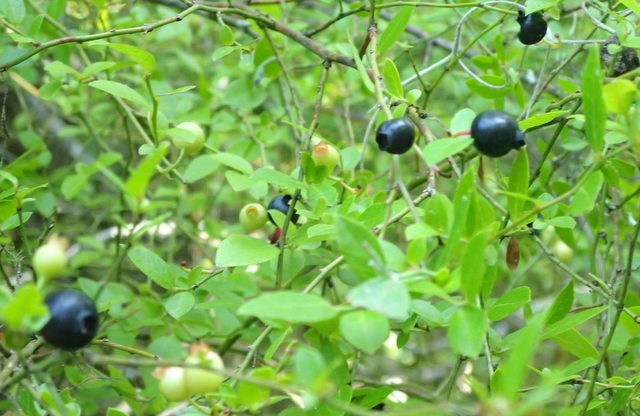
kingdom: Plantae
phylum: Tracheophyta
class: Magnoliopsida
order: Ericales
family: Ericaceae
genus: Vaccinium
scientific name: Vaccinium corymbosum
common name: Blueberry
